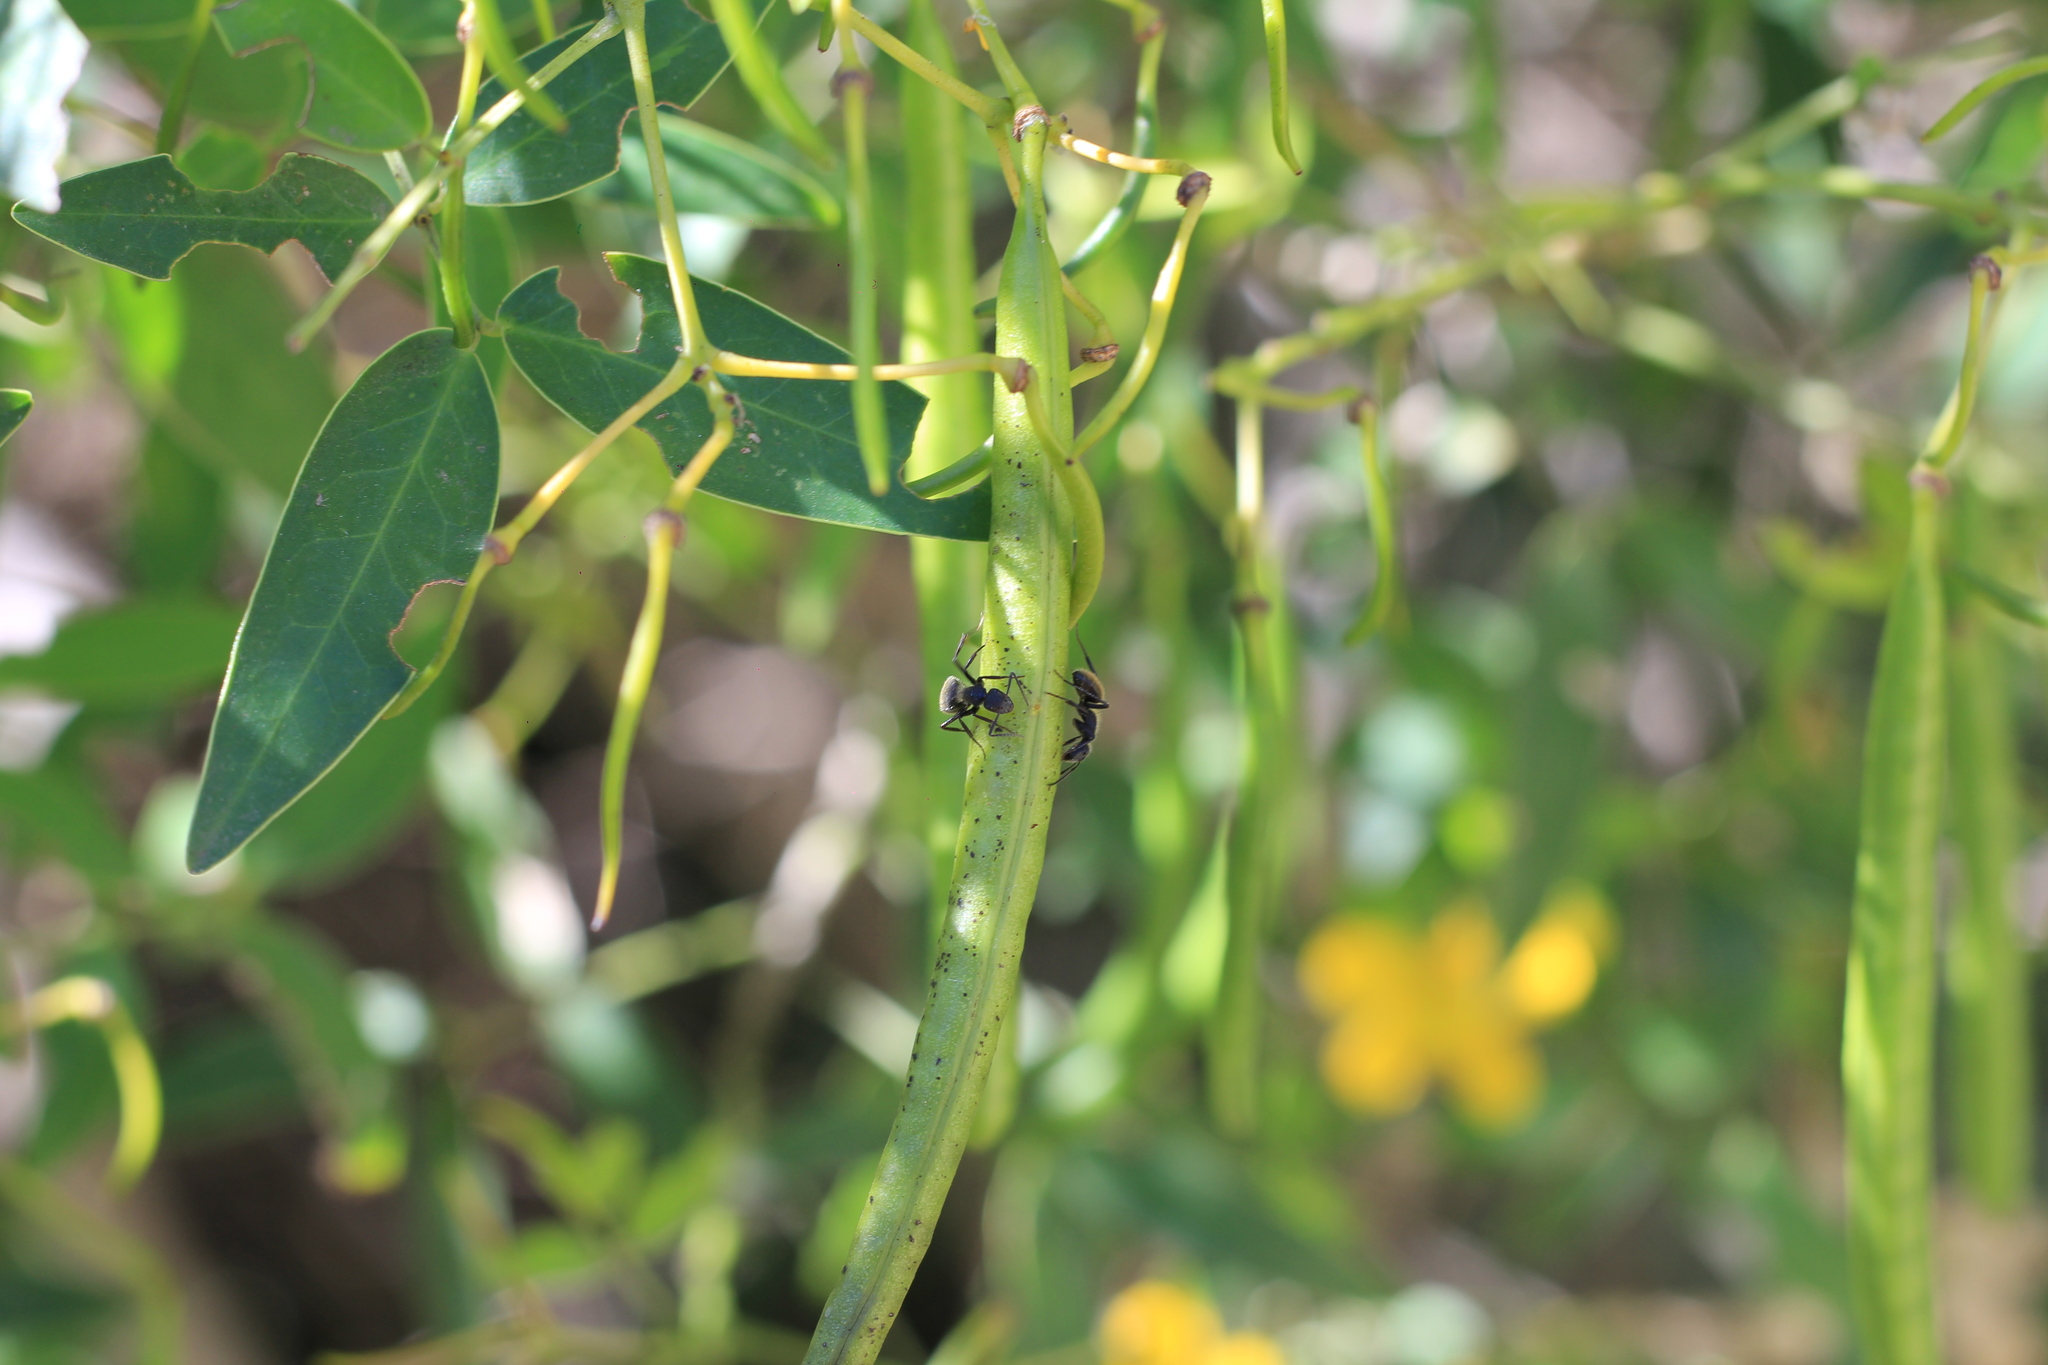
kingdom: Animalia
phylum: Arthropoda
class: Insecta
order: Hymenoptera
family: Formicidae
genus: Camponotus
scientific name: Camponotus mus
